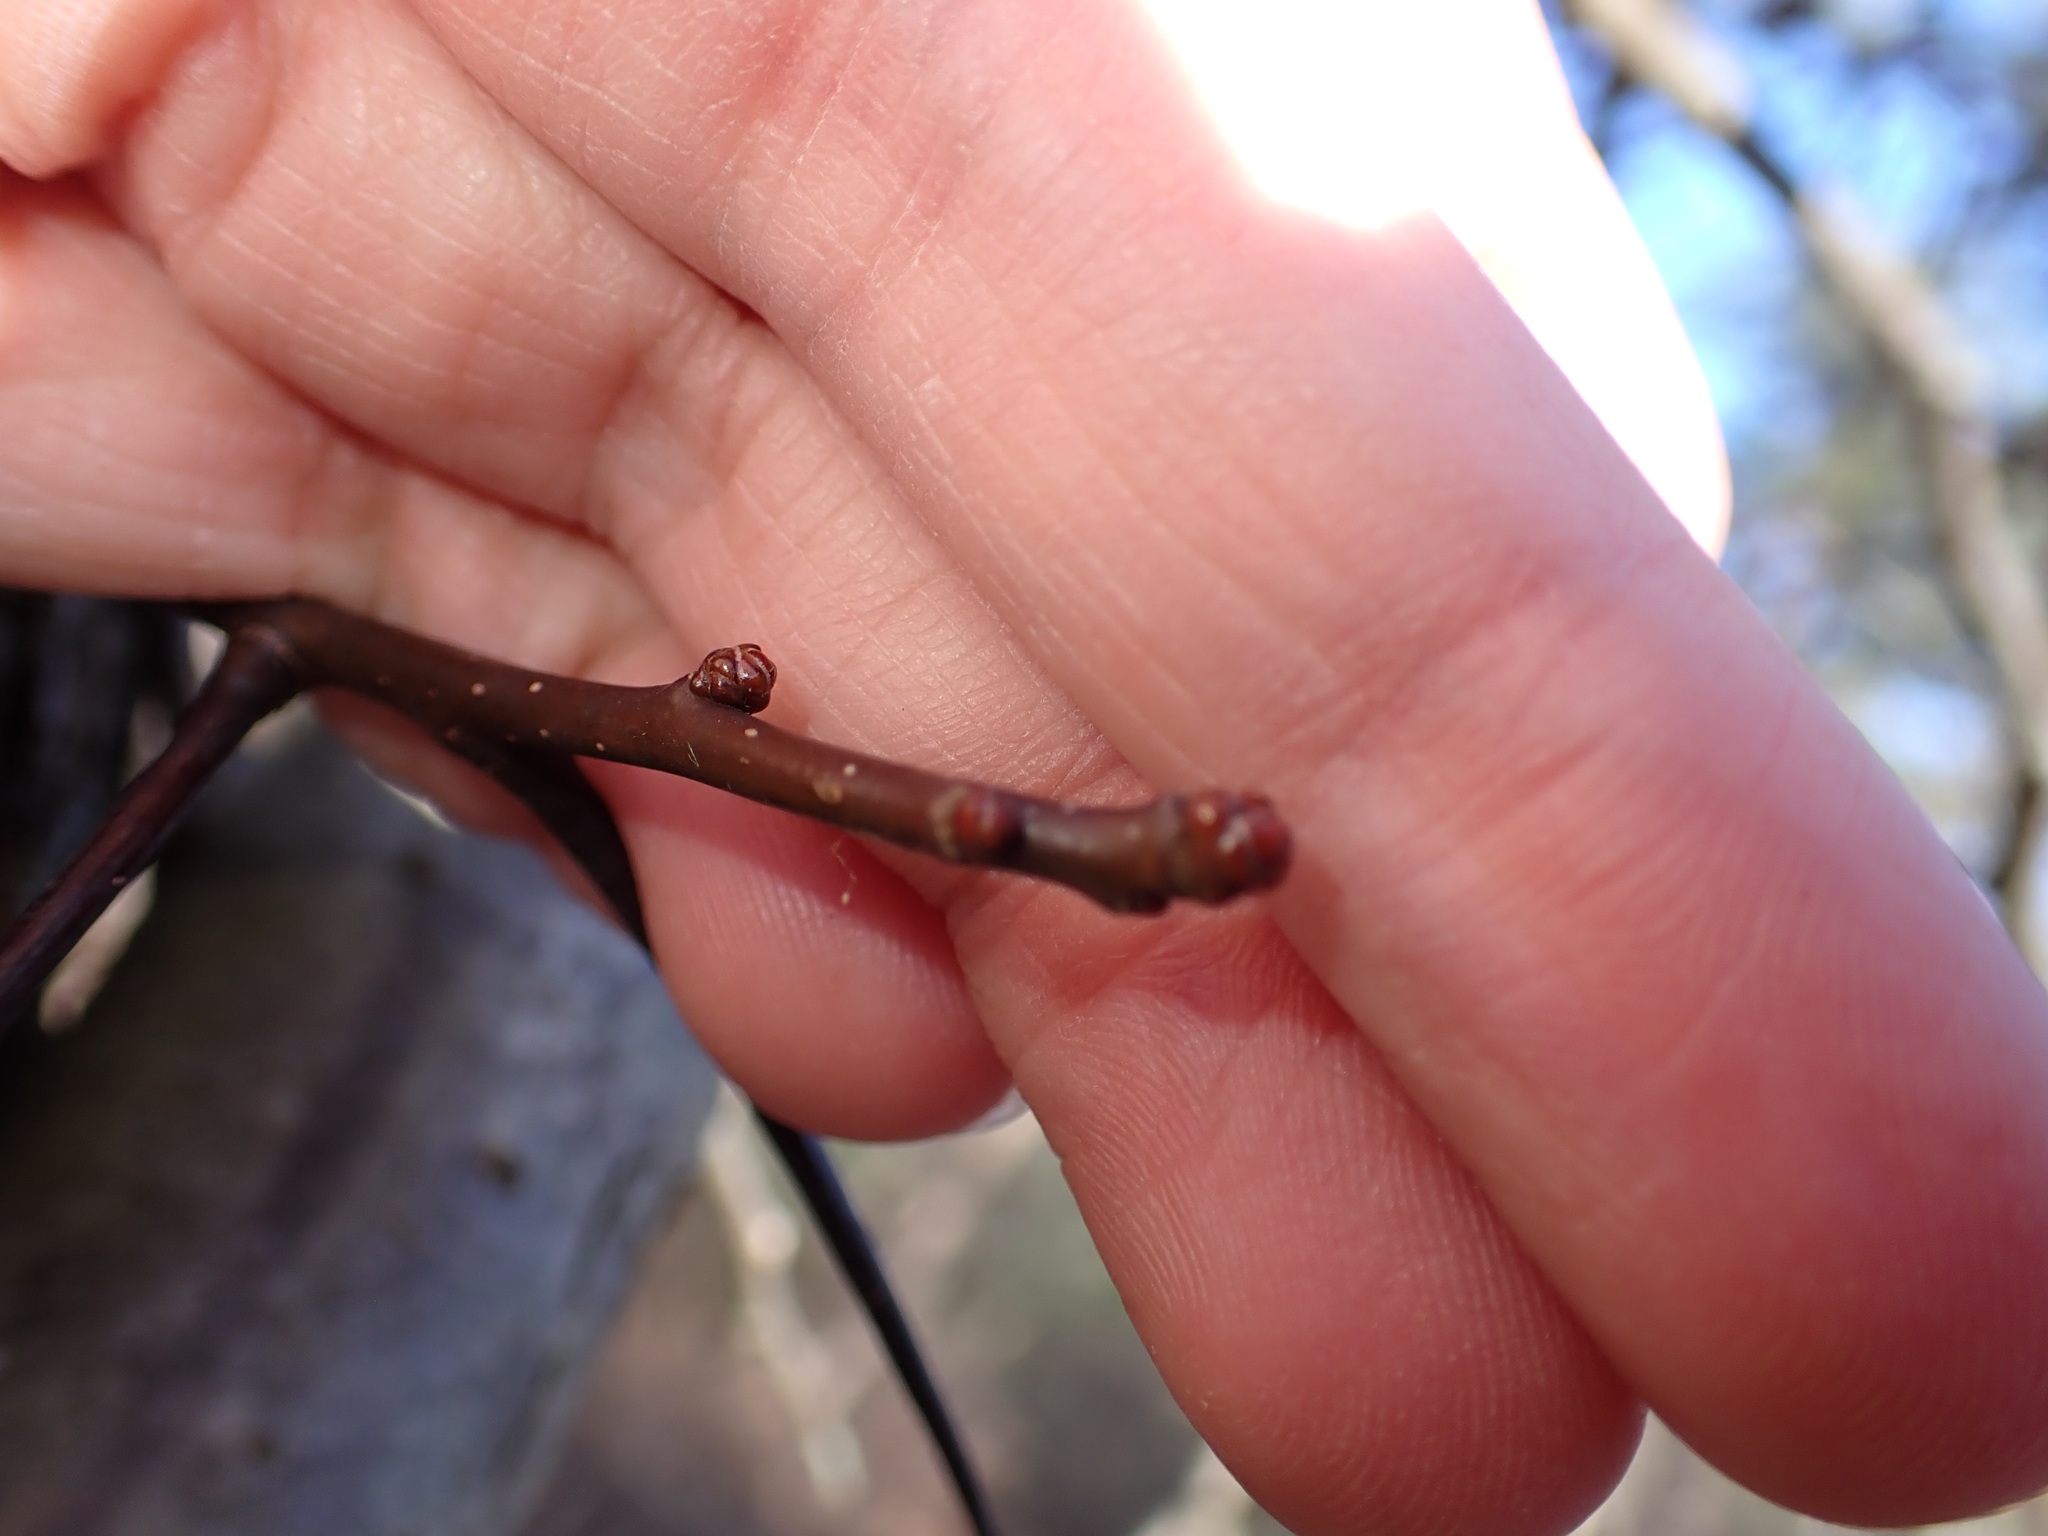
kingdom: Plantae
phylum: Tracheophyta
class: Magnoliopsida
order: Rosales
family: Rosaceae
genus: Crataegus
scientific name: Crataegus
